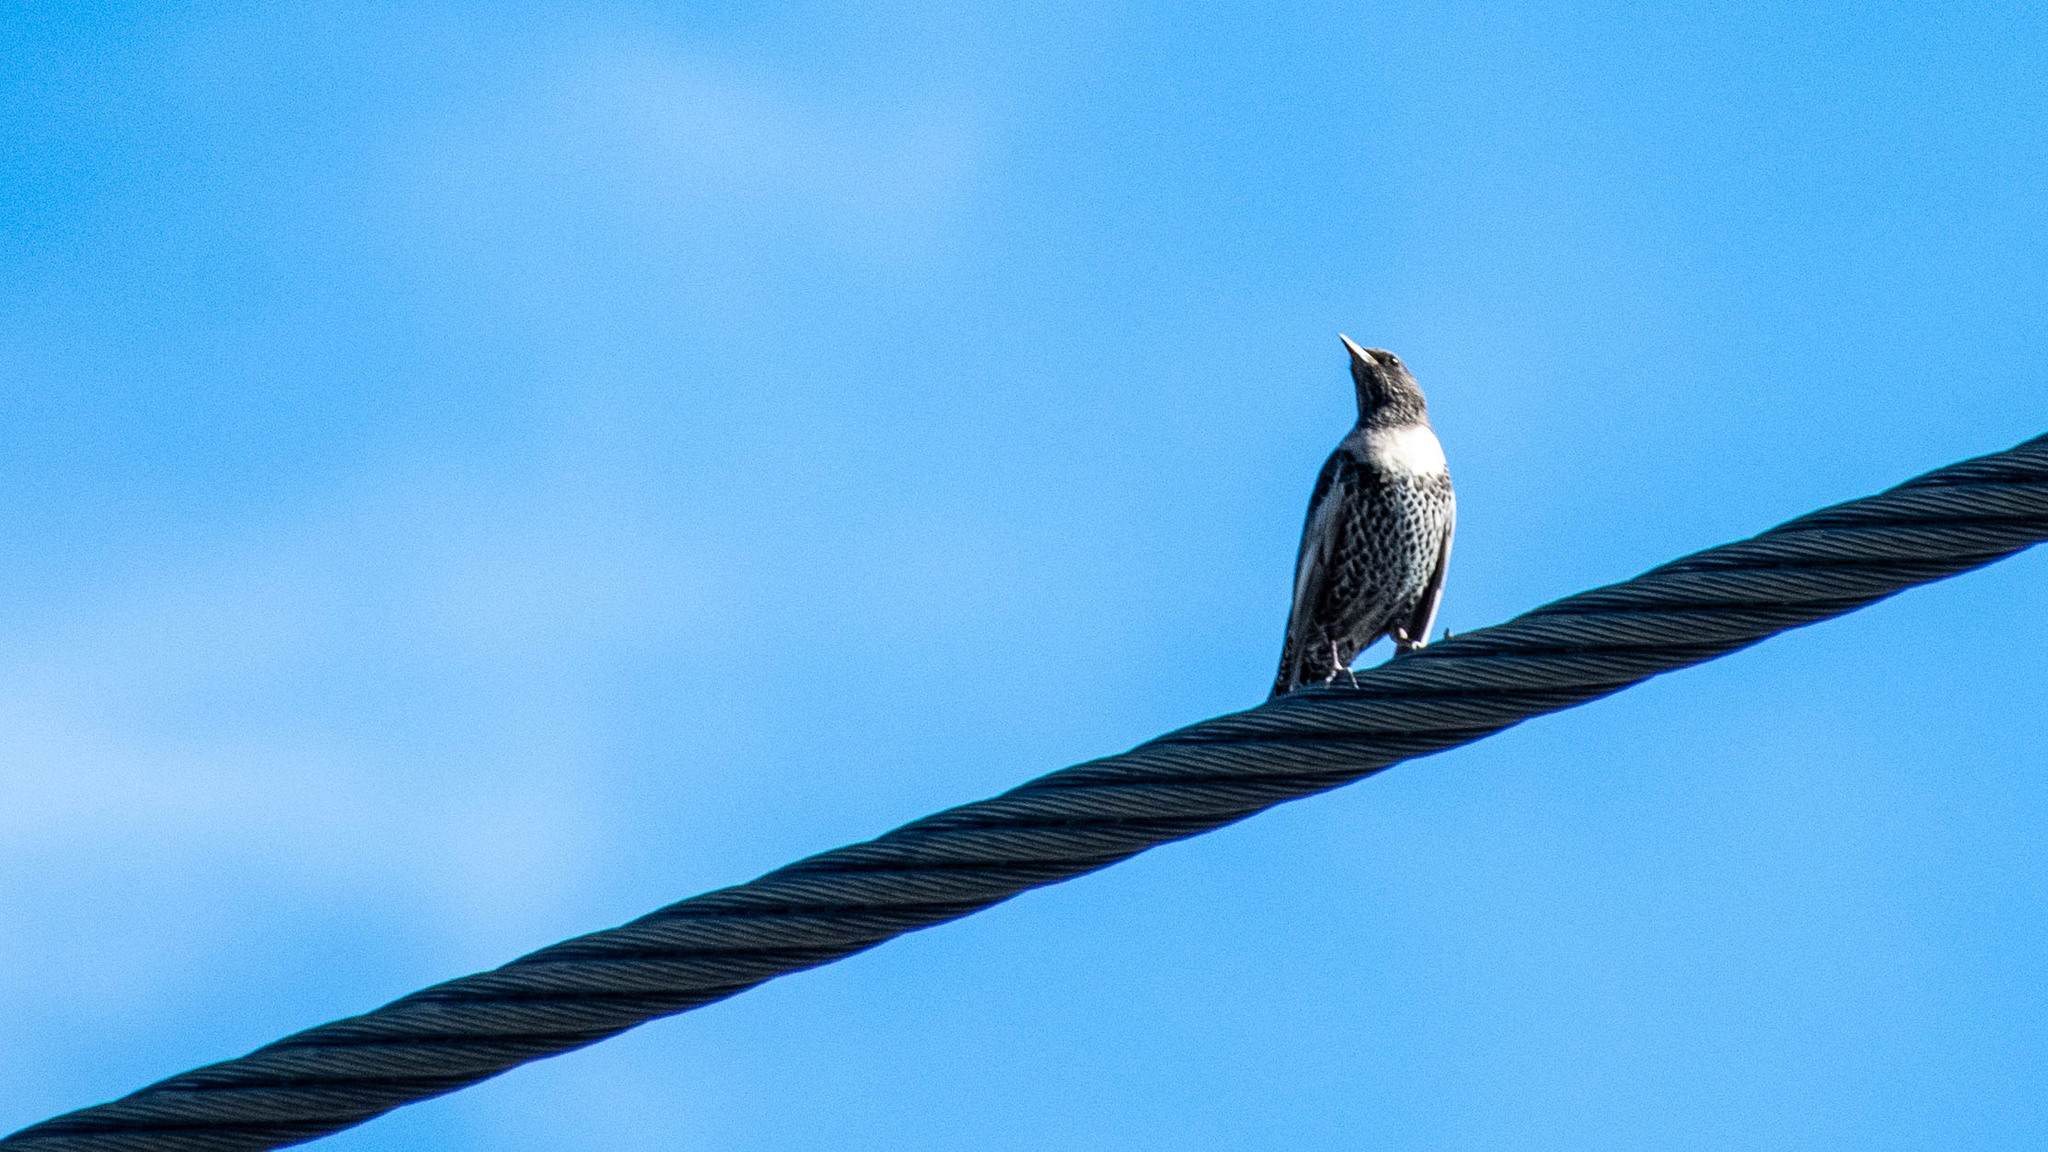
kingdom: Animalia
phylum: Chordata
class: Aves
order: Passeriformes
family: Turdidae
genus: Turdus
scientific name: Turdus torquatus
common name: Ring ouzel
